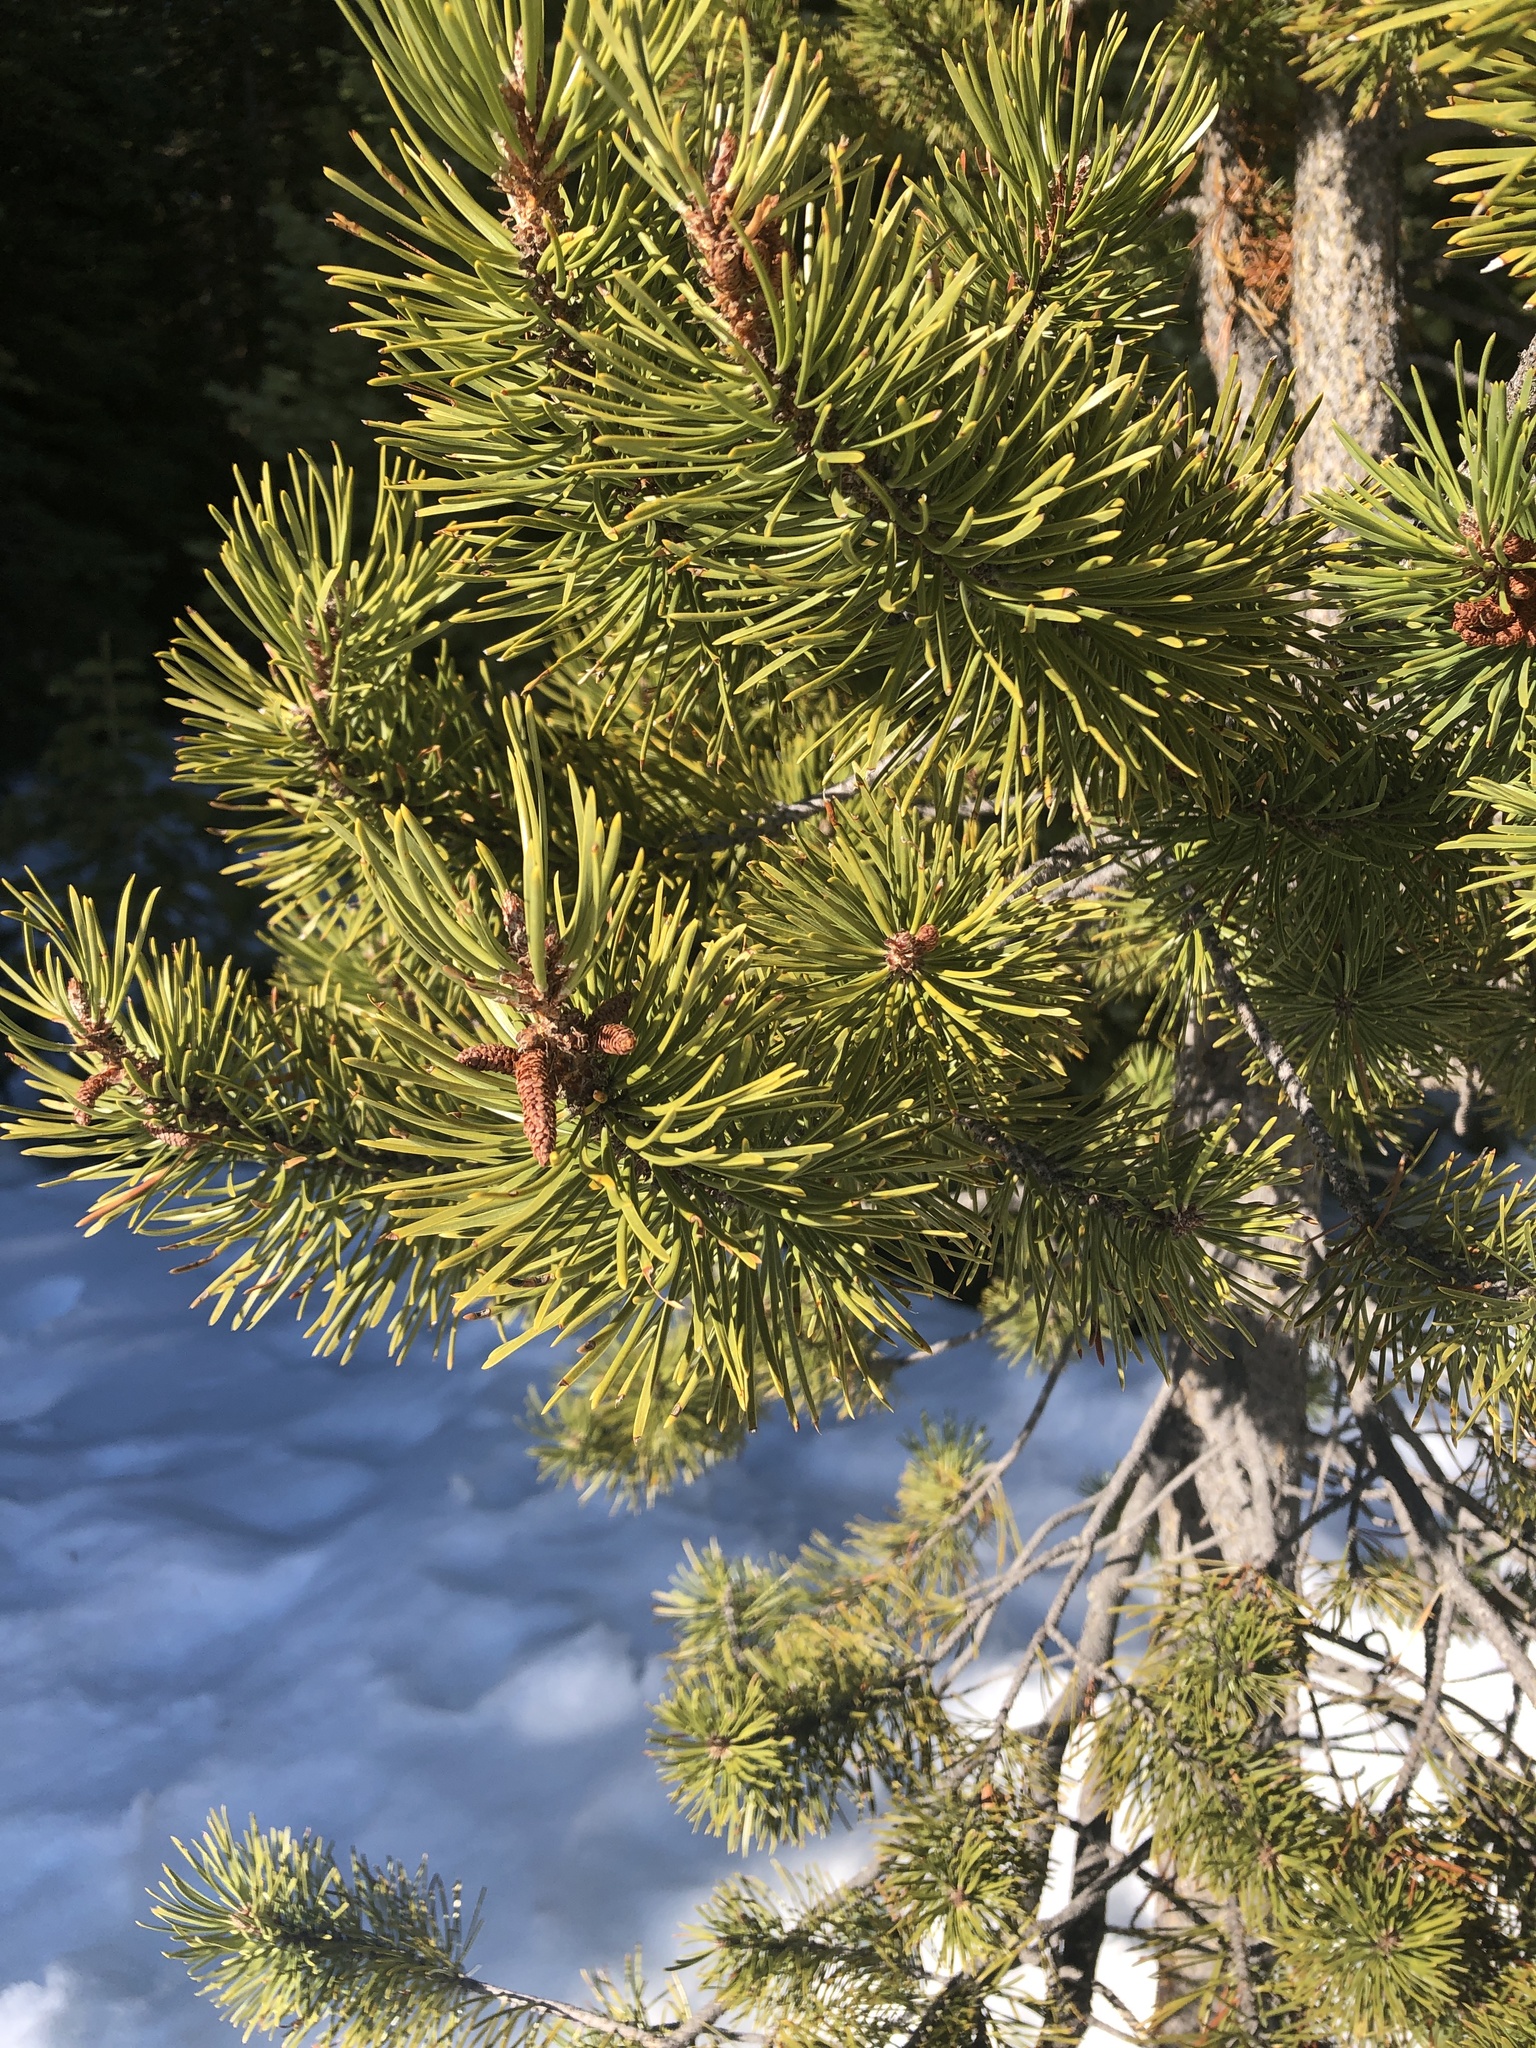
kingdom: Plantae
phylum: Tracheophyta
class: Pinopsida
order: Pinales
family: Pinaceae
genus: Pinus
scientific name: Pinus contorta
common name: Lodgepole pine
